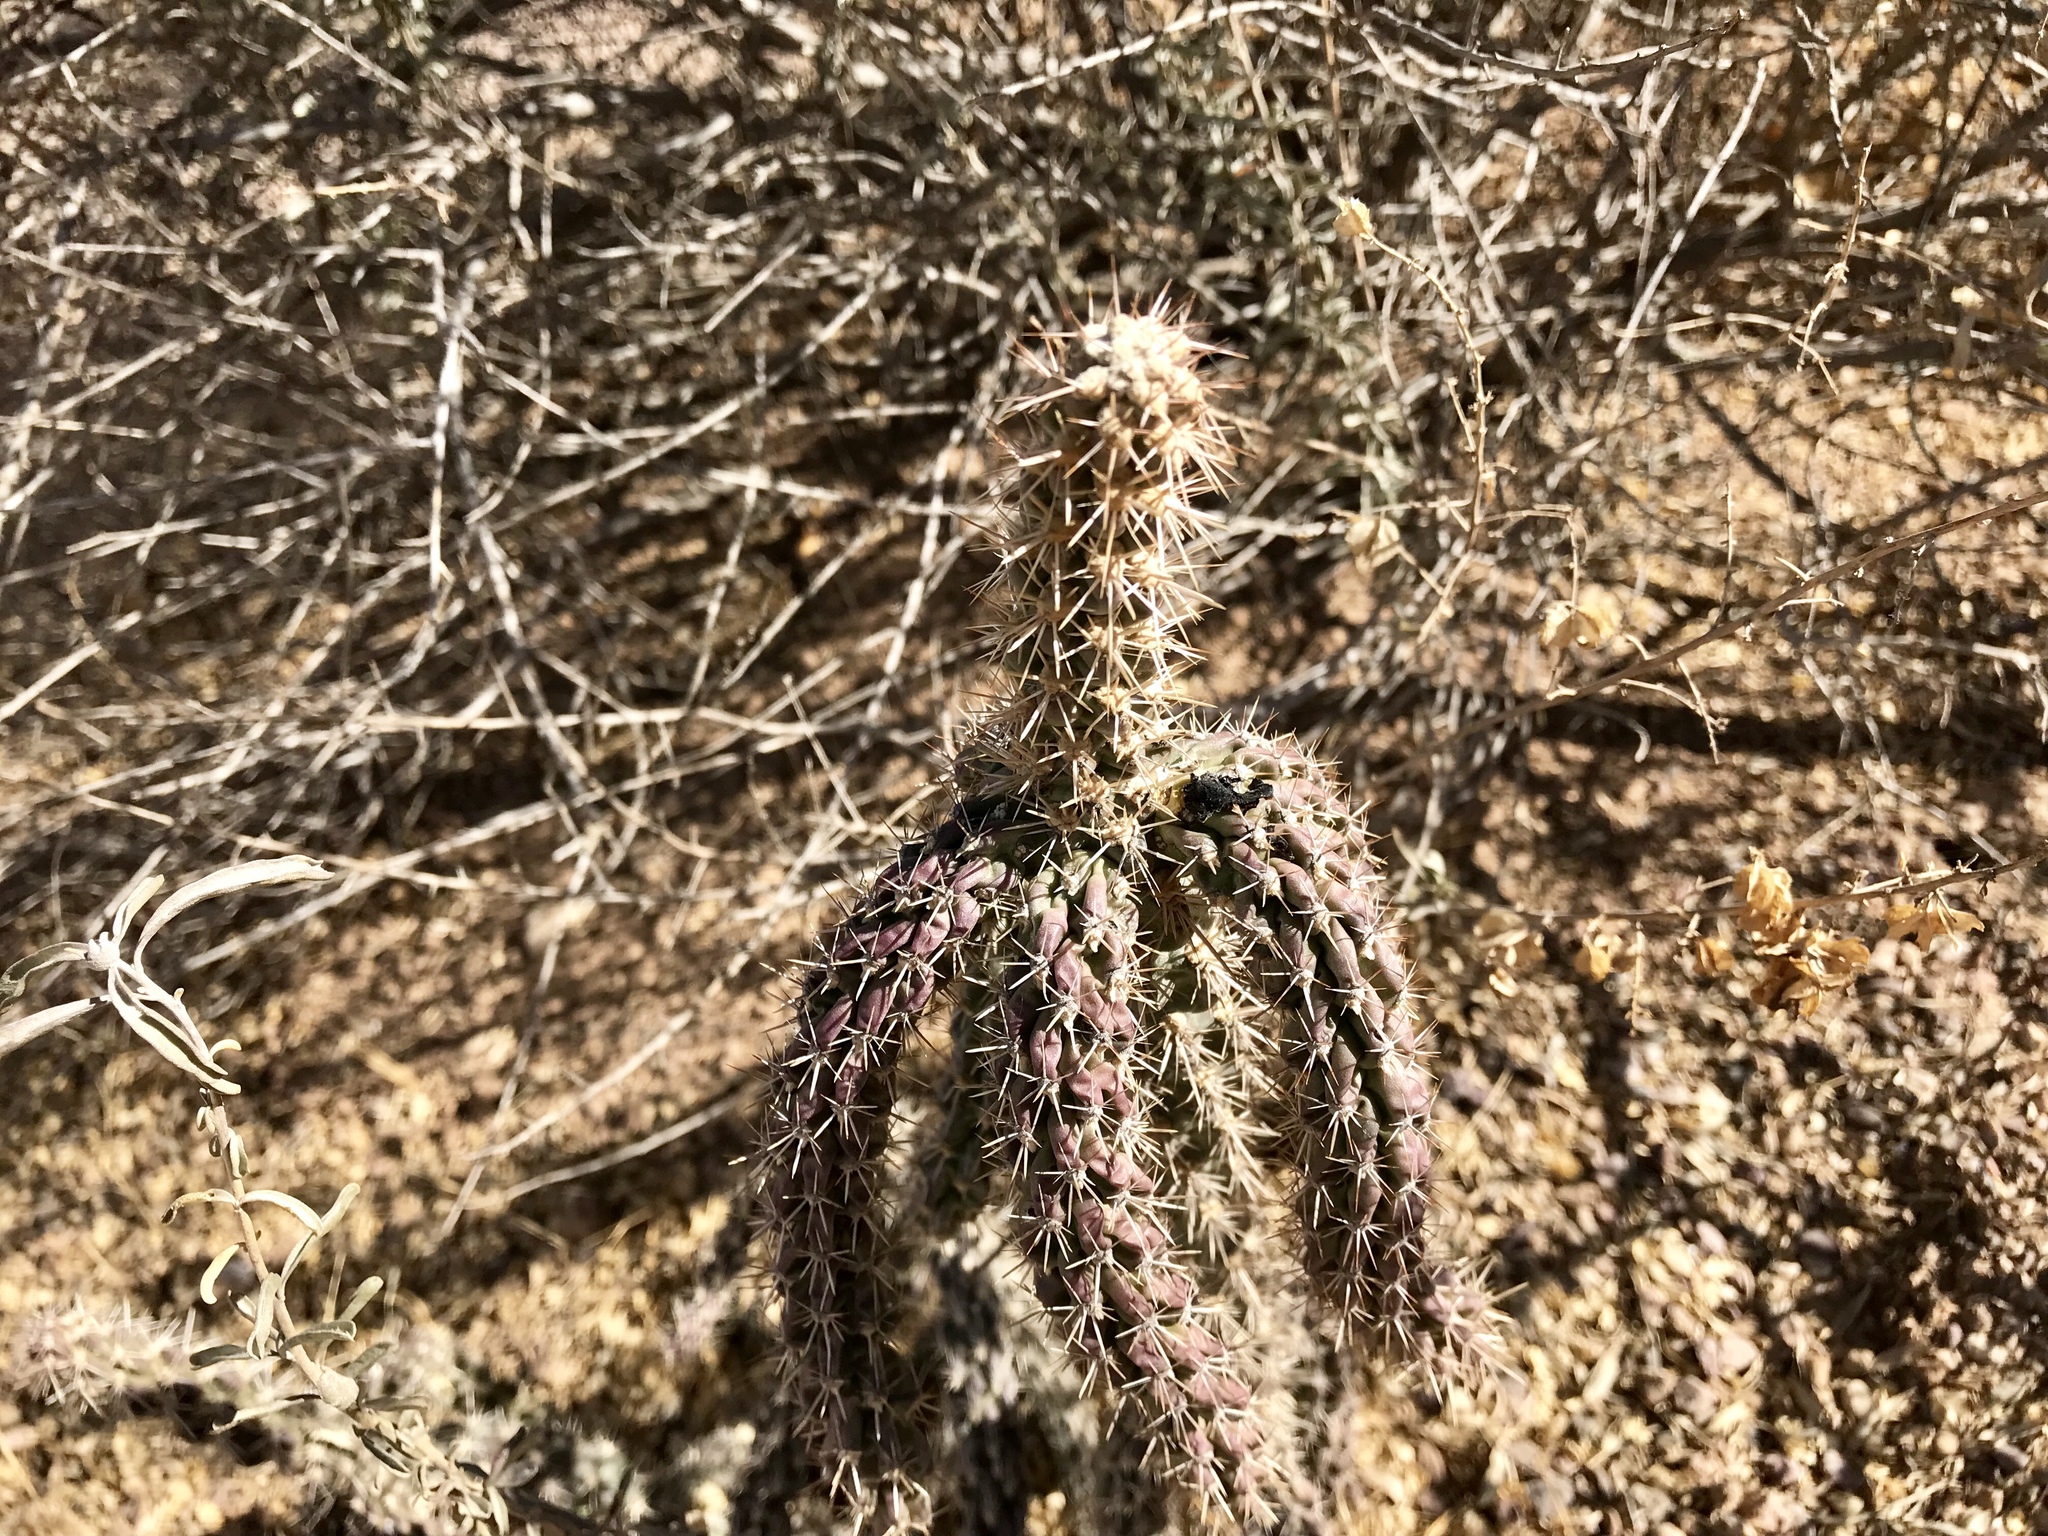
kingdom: Plantae
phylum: Tracheophyta
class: Magnoliopsida
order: Caryophyllales
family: Cactaceae
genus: Cylindropuntia
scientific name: Cylindropuntia imbricata
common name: Candelabrum cactus
